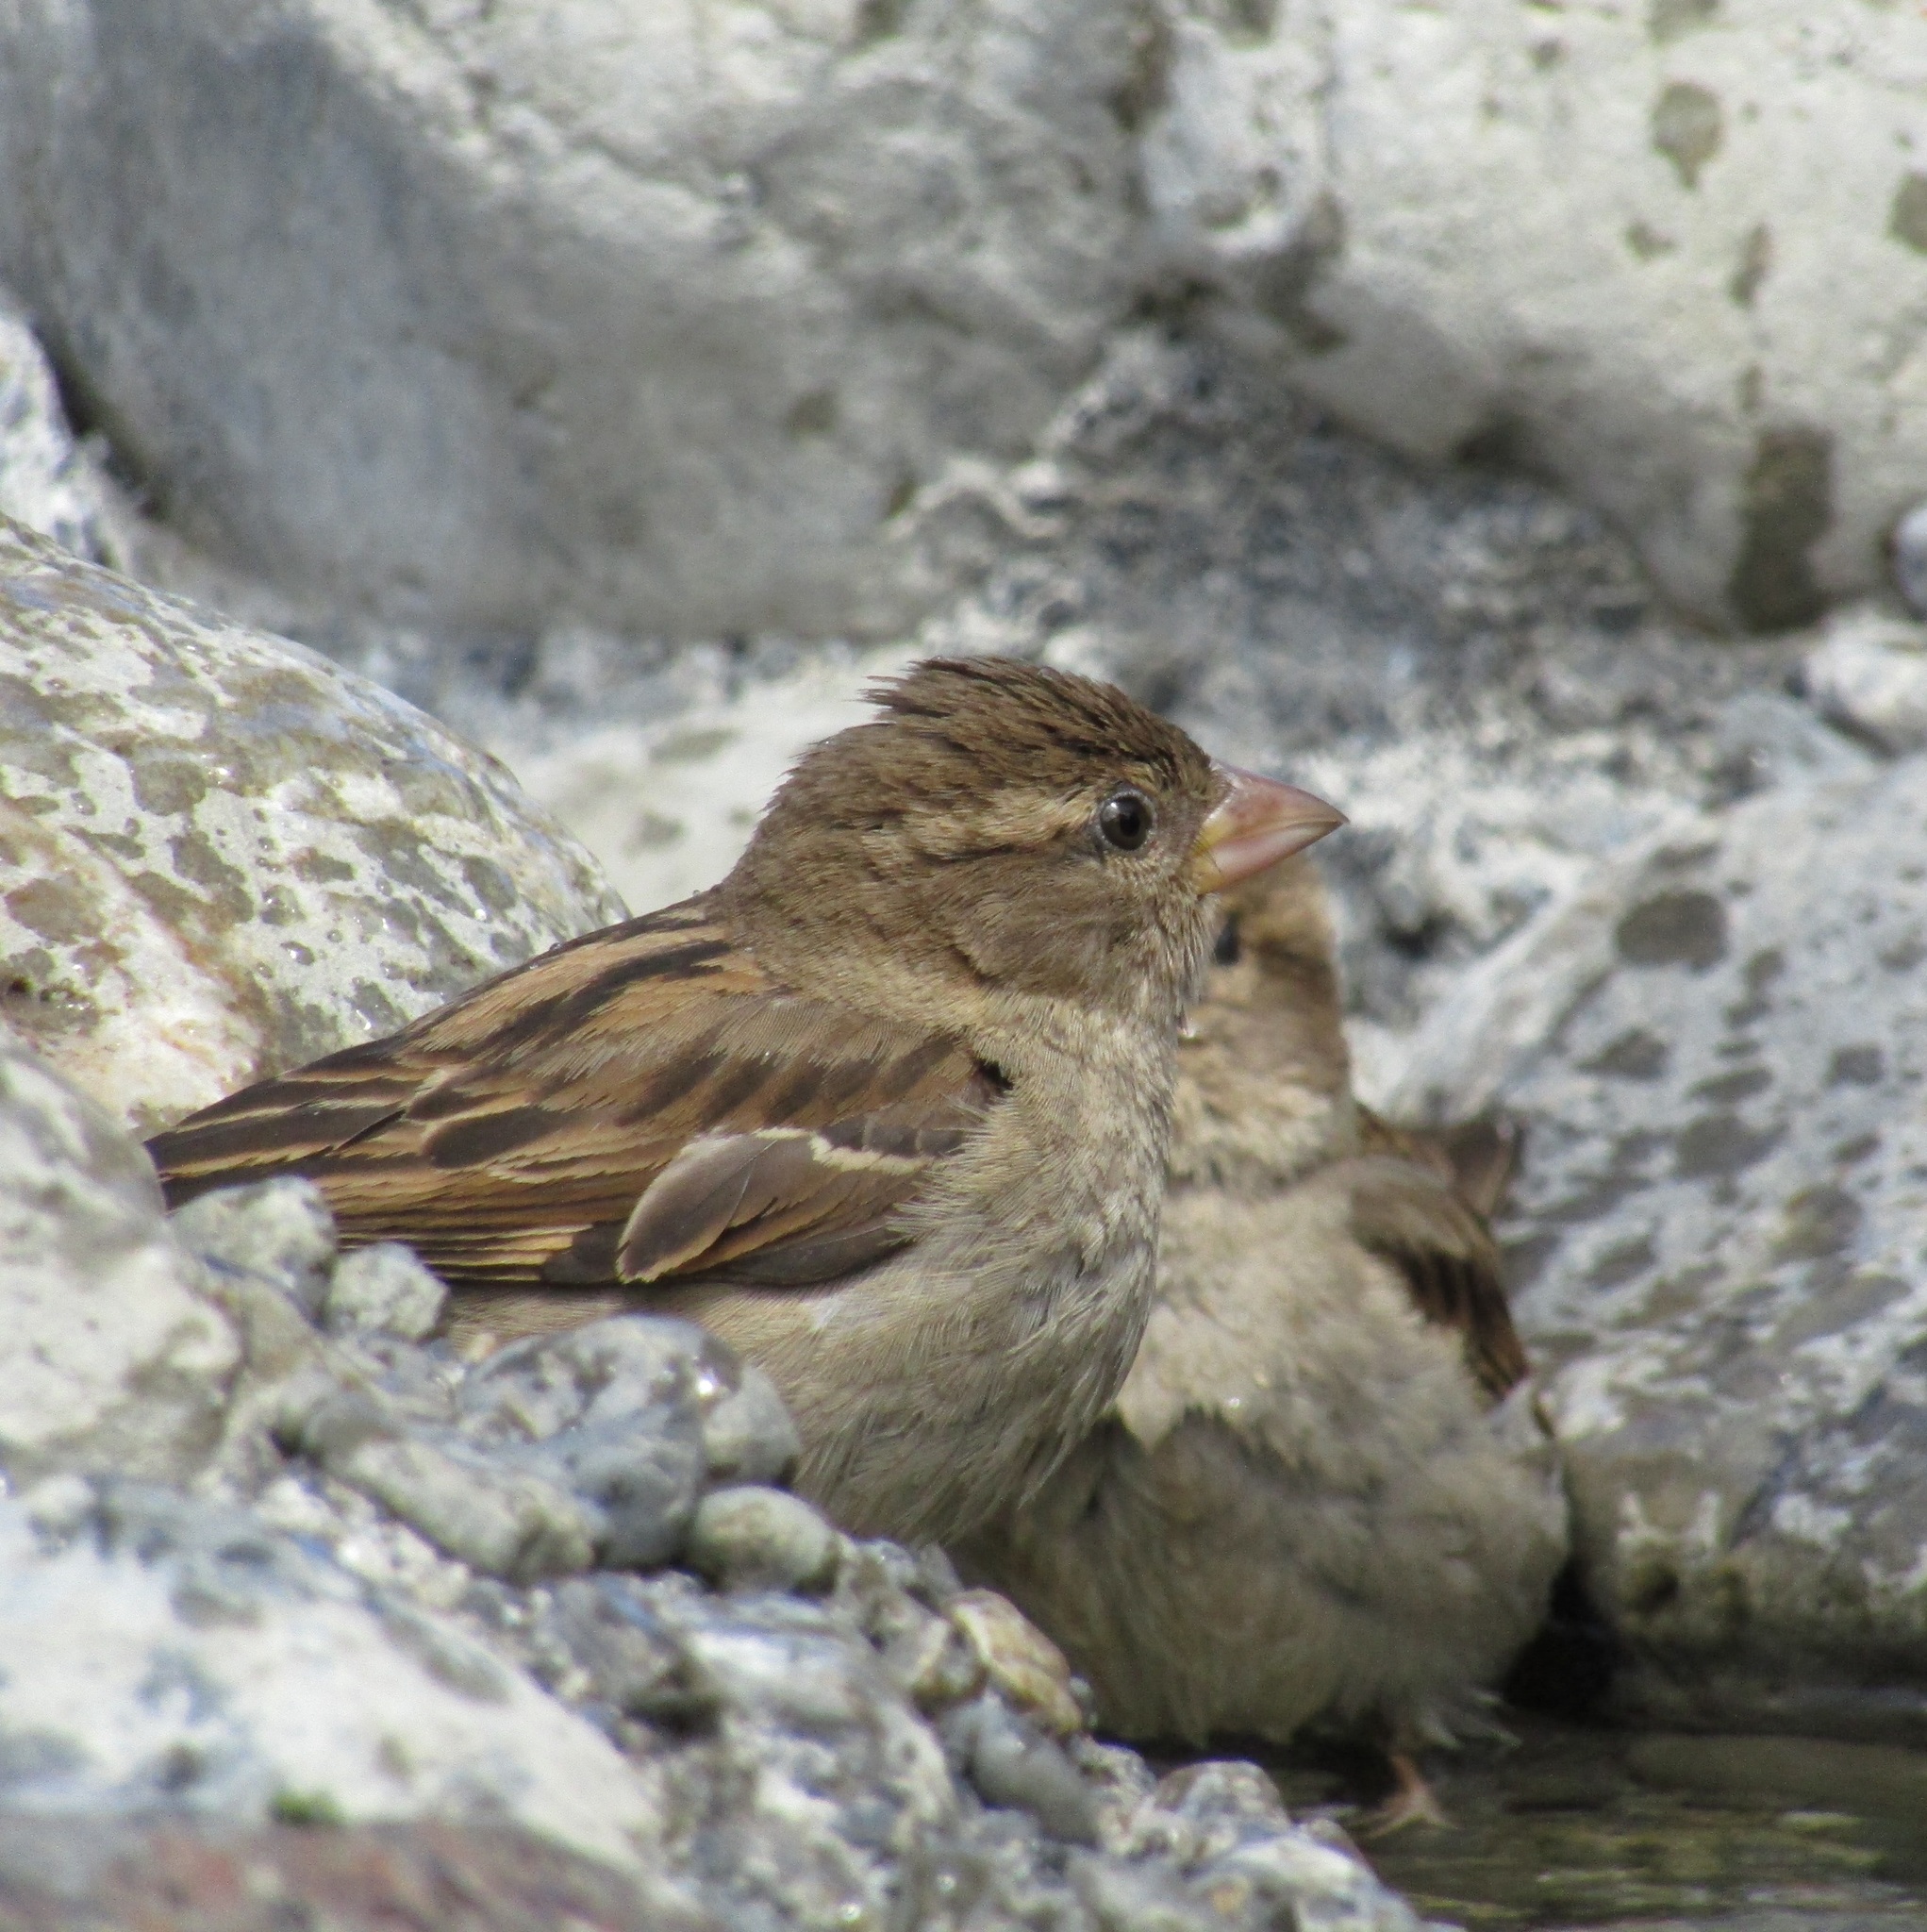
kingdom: Animalia
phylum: Chordata
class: Aves
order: Passeriformes
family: Passeridae
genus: Passer
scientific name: Passer domesticus
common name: House sparrow
